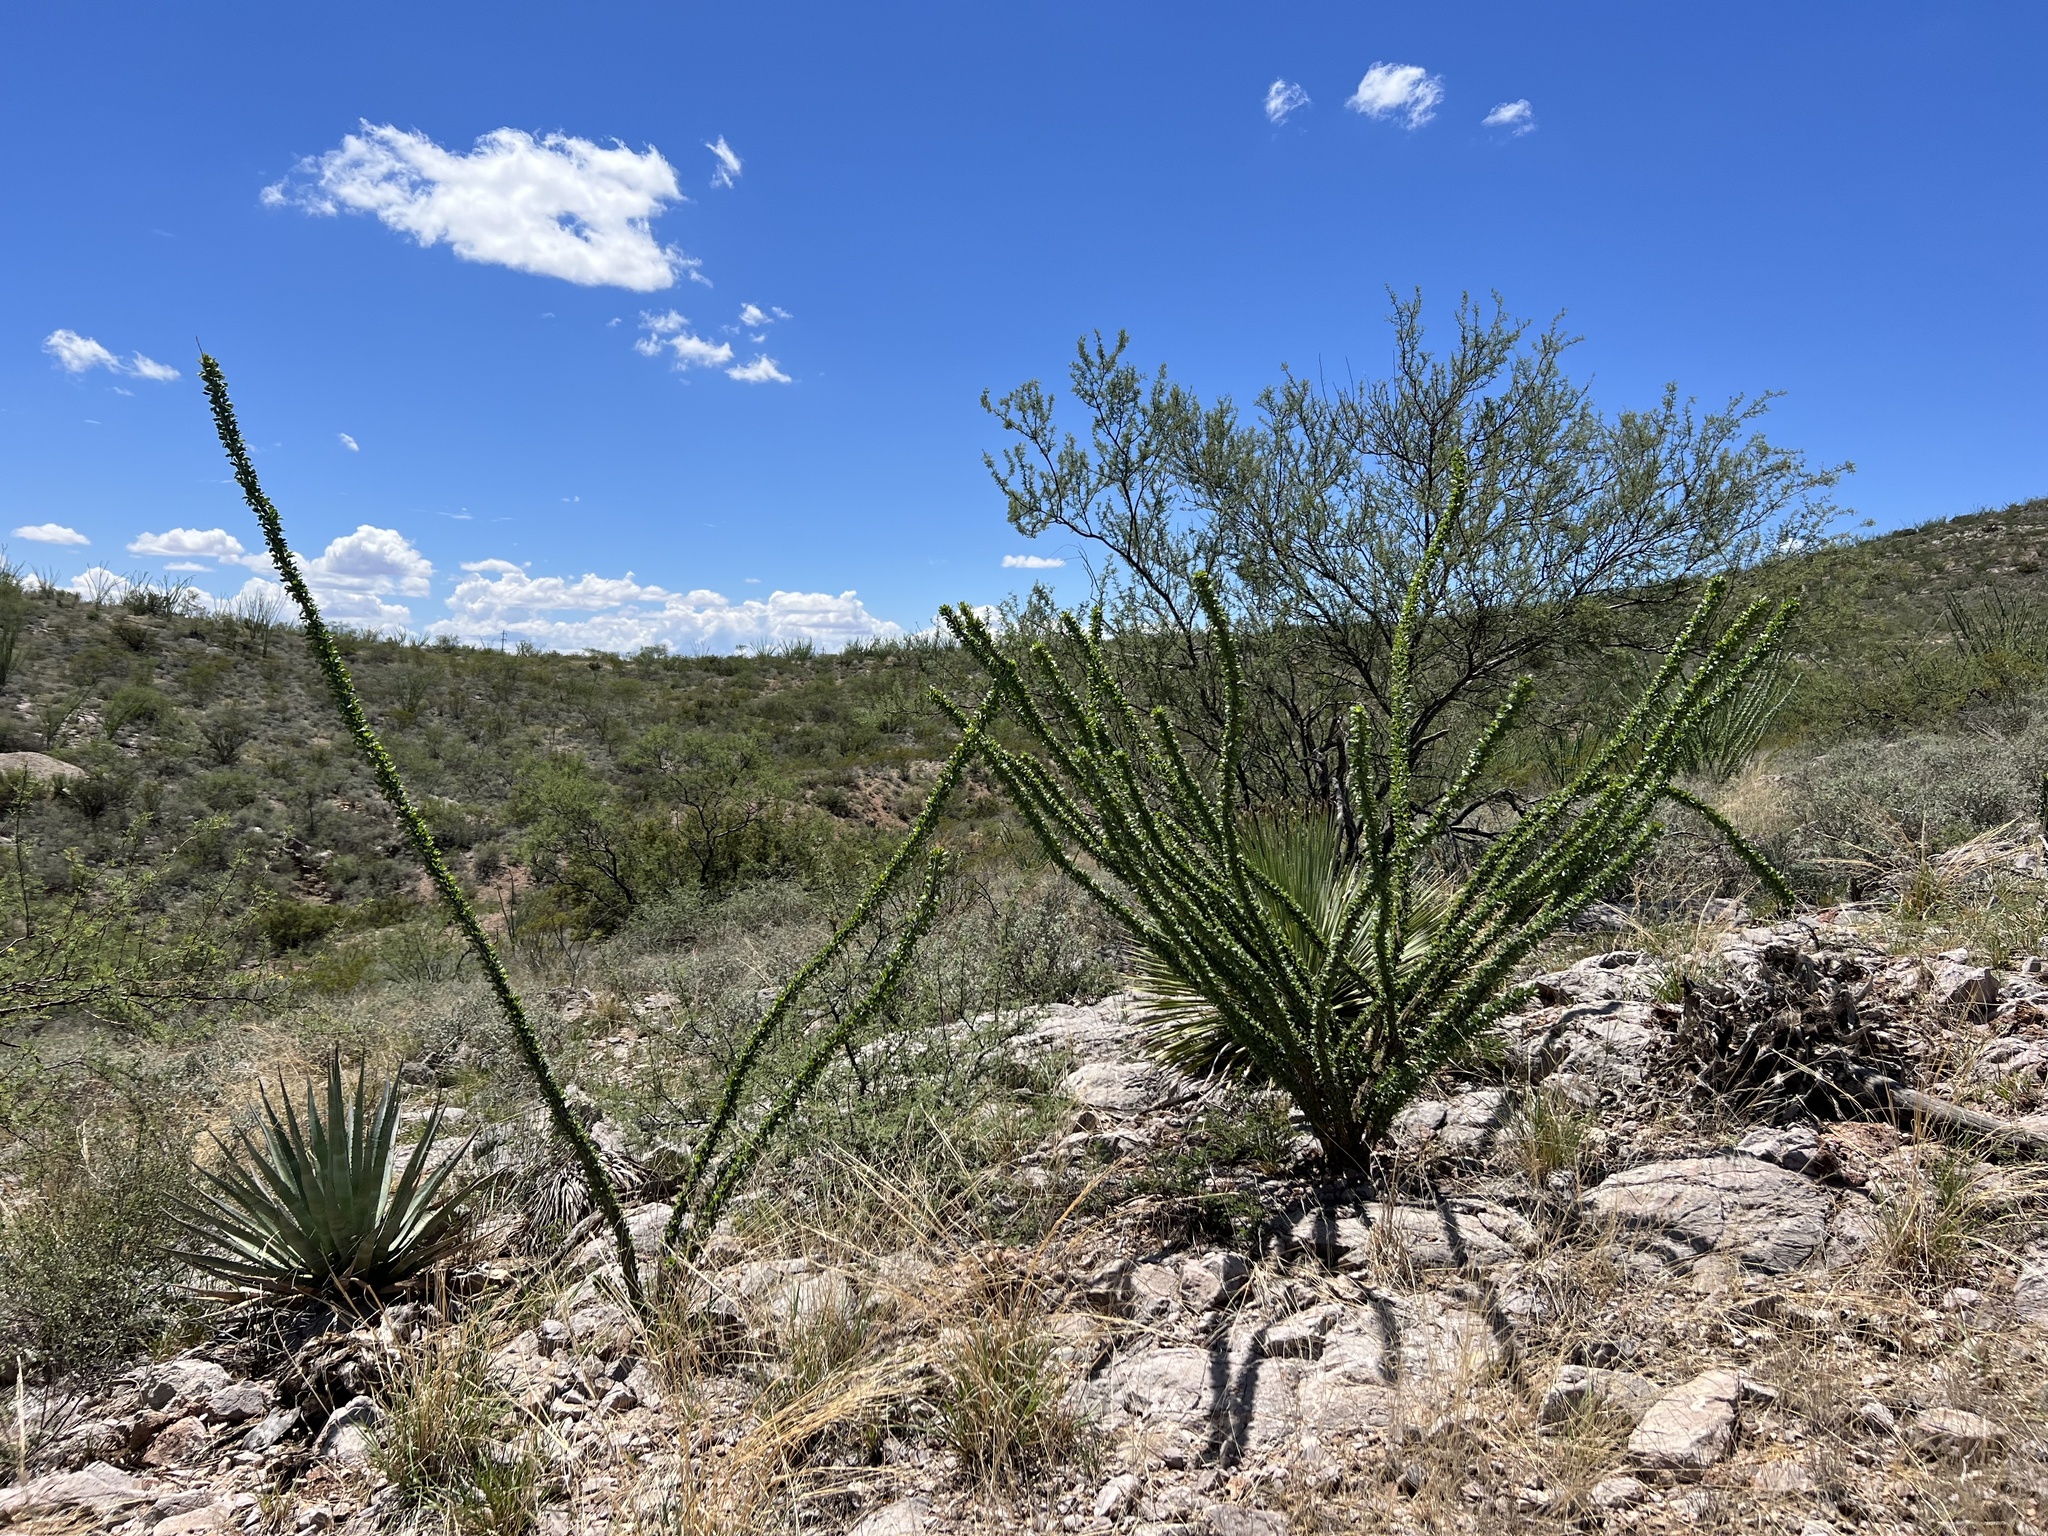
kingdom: Plantae
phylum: Tracheophyta
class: Magnoliopsida
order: Ericales
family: Fouquieriaceae
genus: Fouquieria
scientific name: Fouquieria splendens
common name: Vine-cactus
